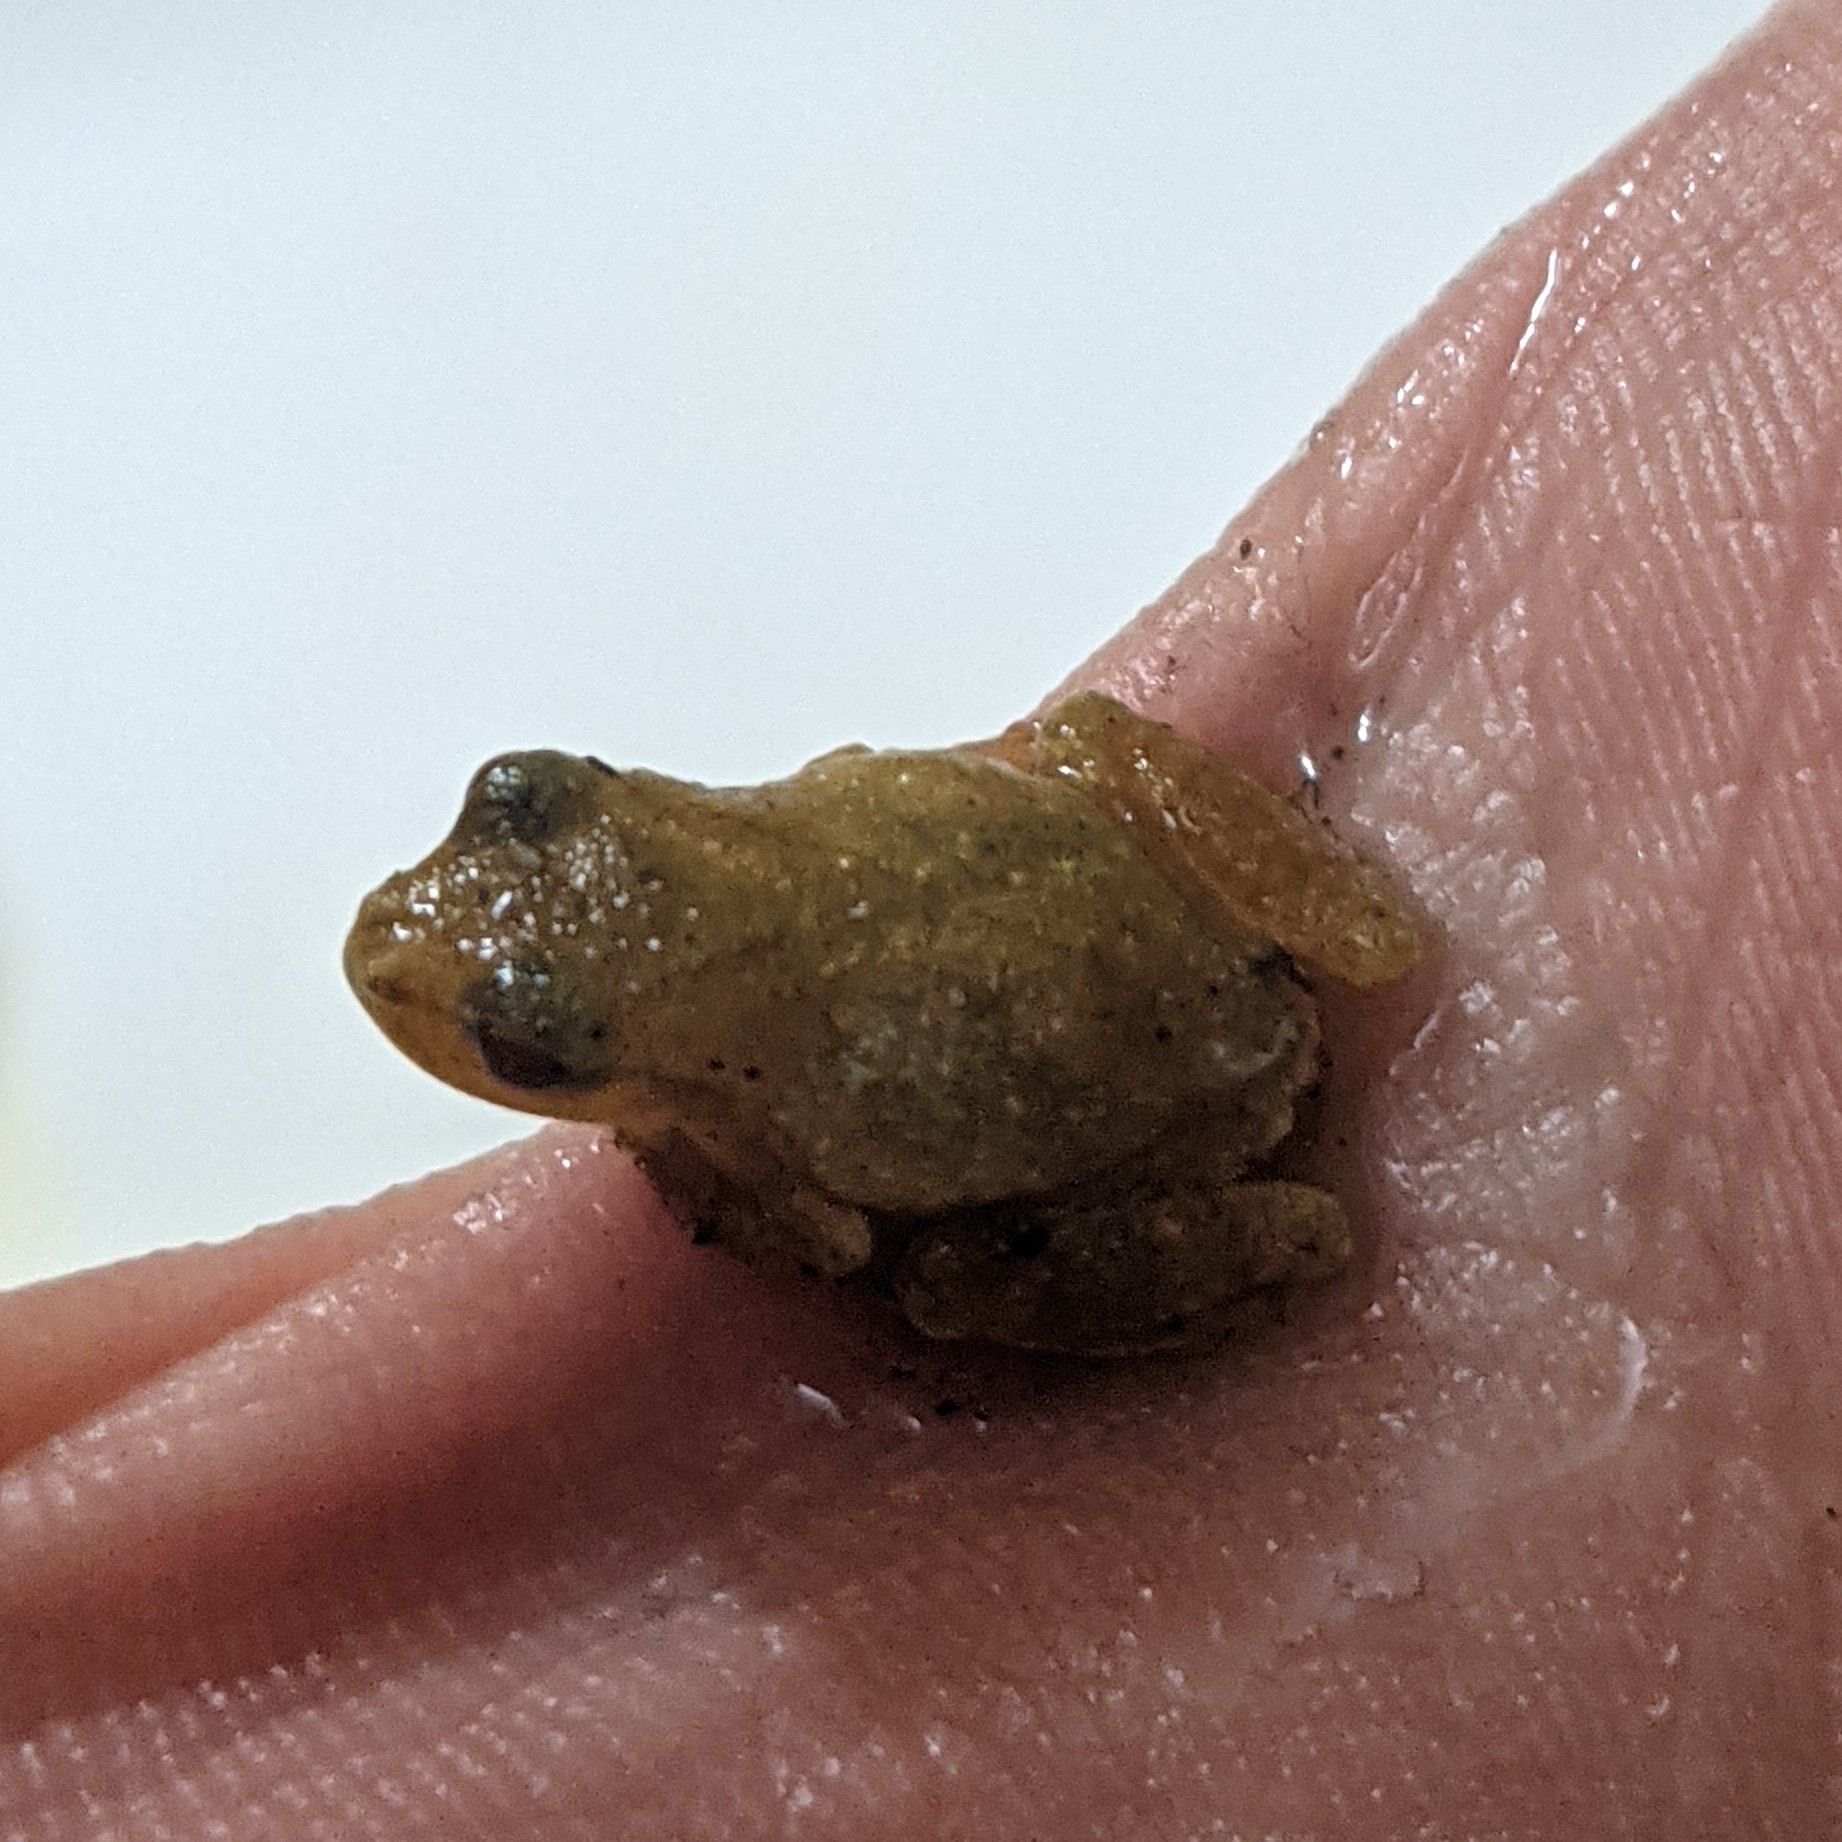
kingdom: Animalia
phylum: Chordata
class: Amphibia
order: Anura
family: Hylidae
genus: Pseudacris
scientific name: Pseudacris crucifer
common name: Spring peeper
